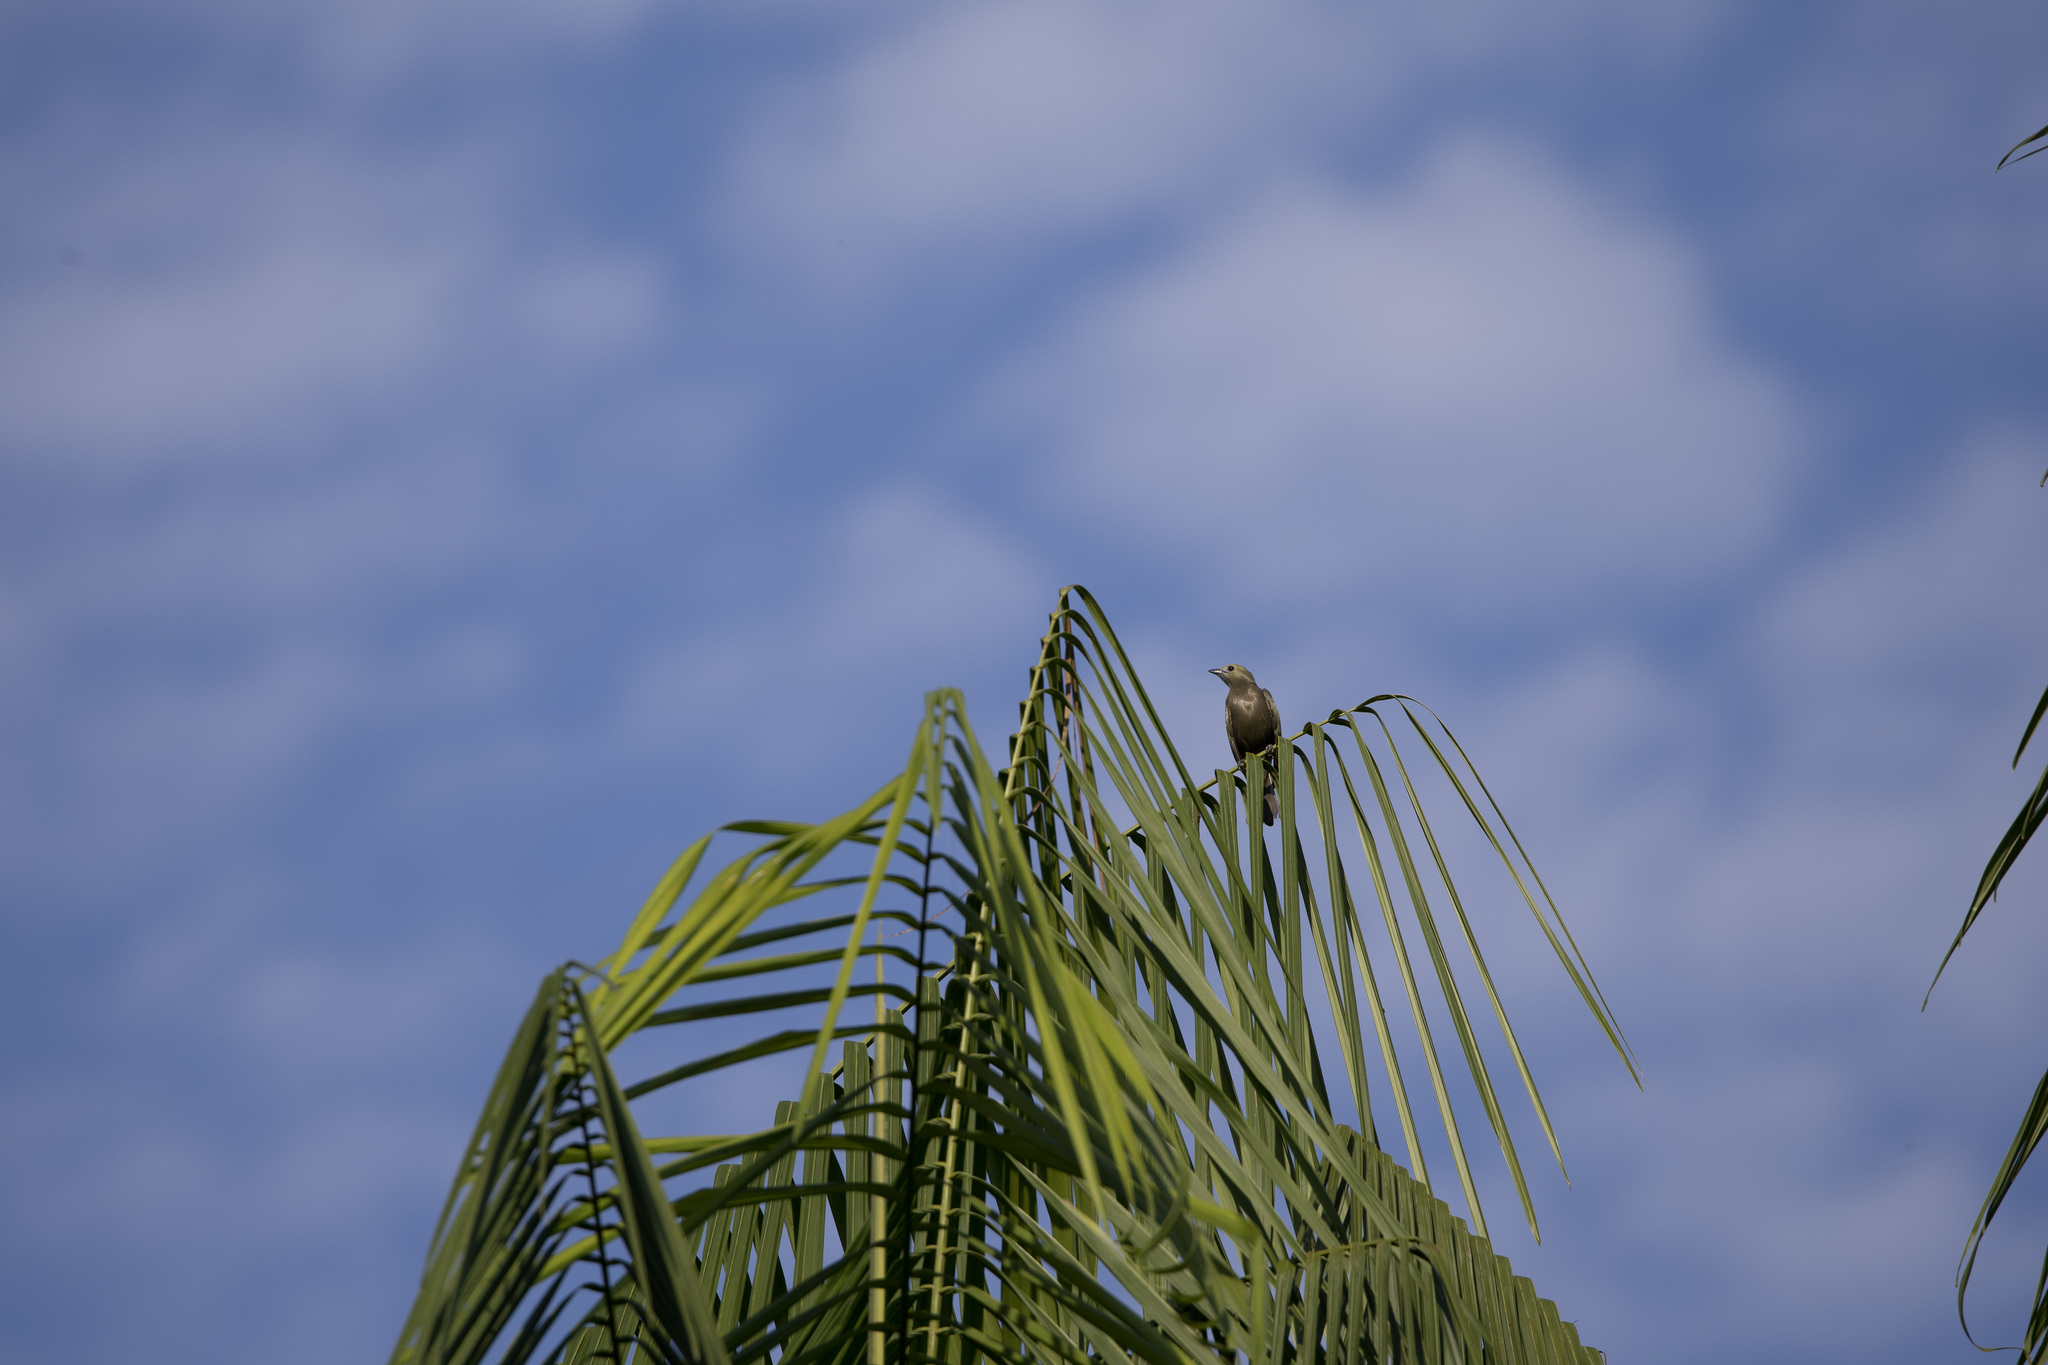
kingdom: Animalia
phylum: Chordata
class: Aves
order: Passeriformes
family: Thraupidae
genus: Thraupis
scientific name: Thraupis palmarum
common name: Palm tanager
